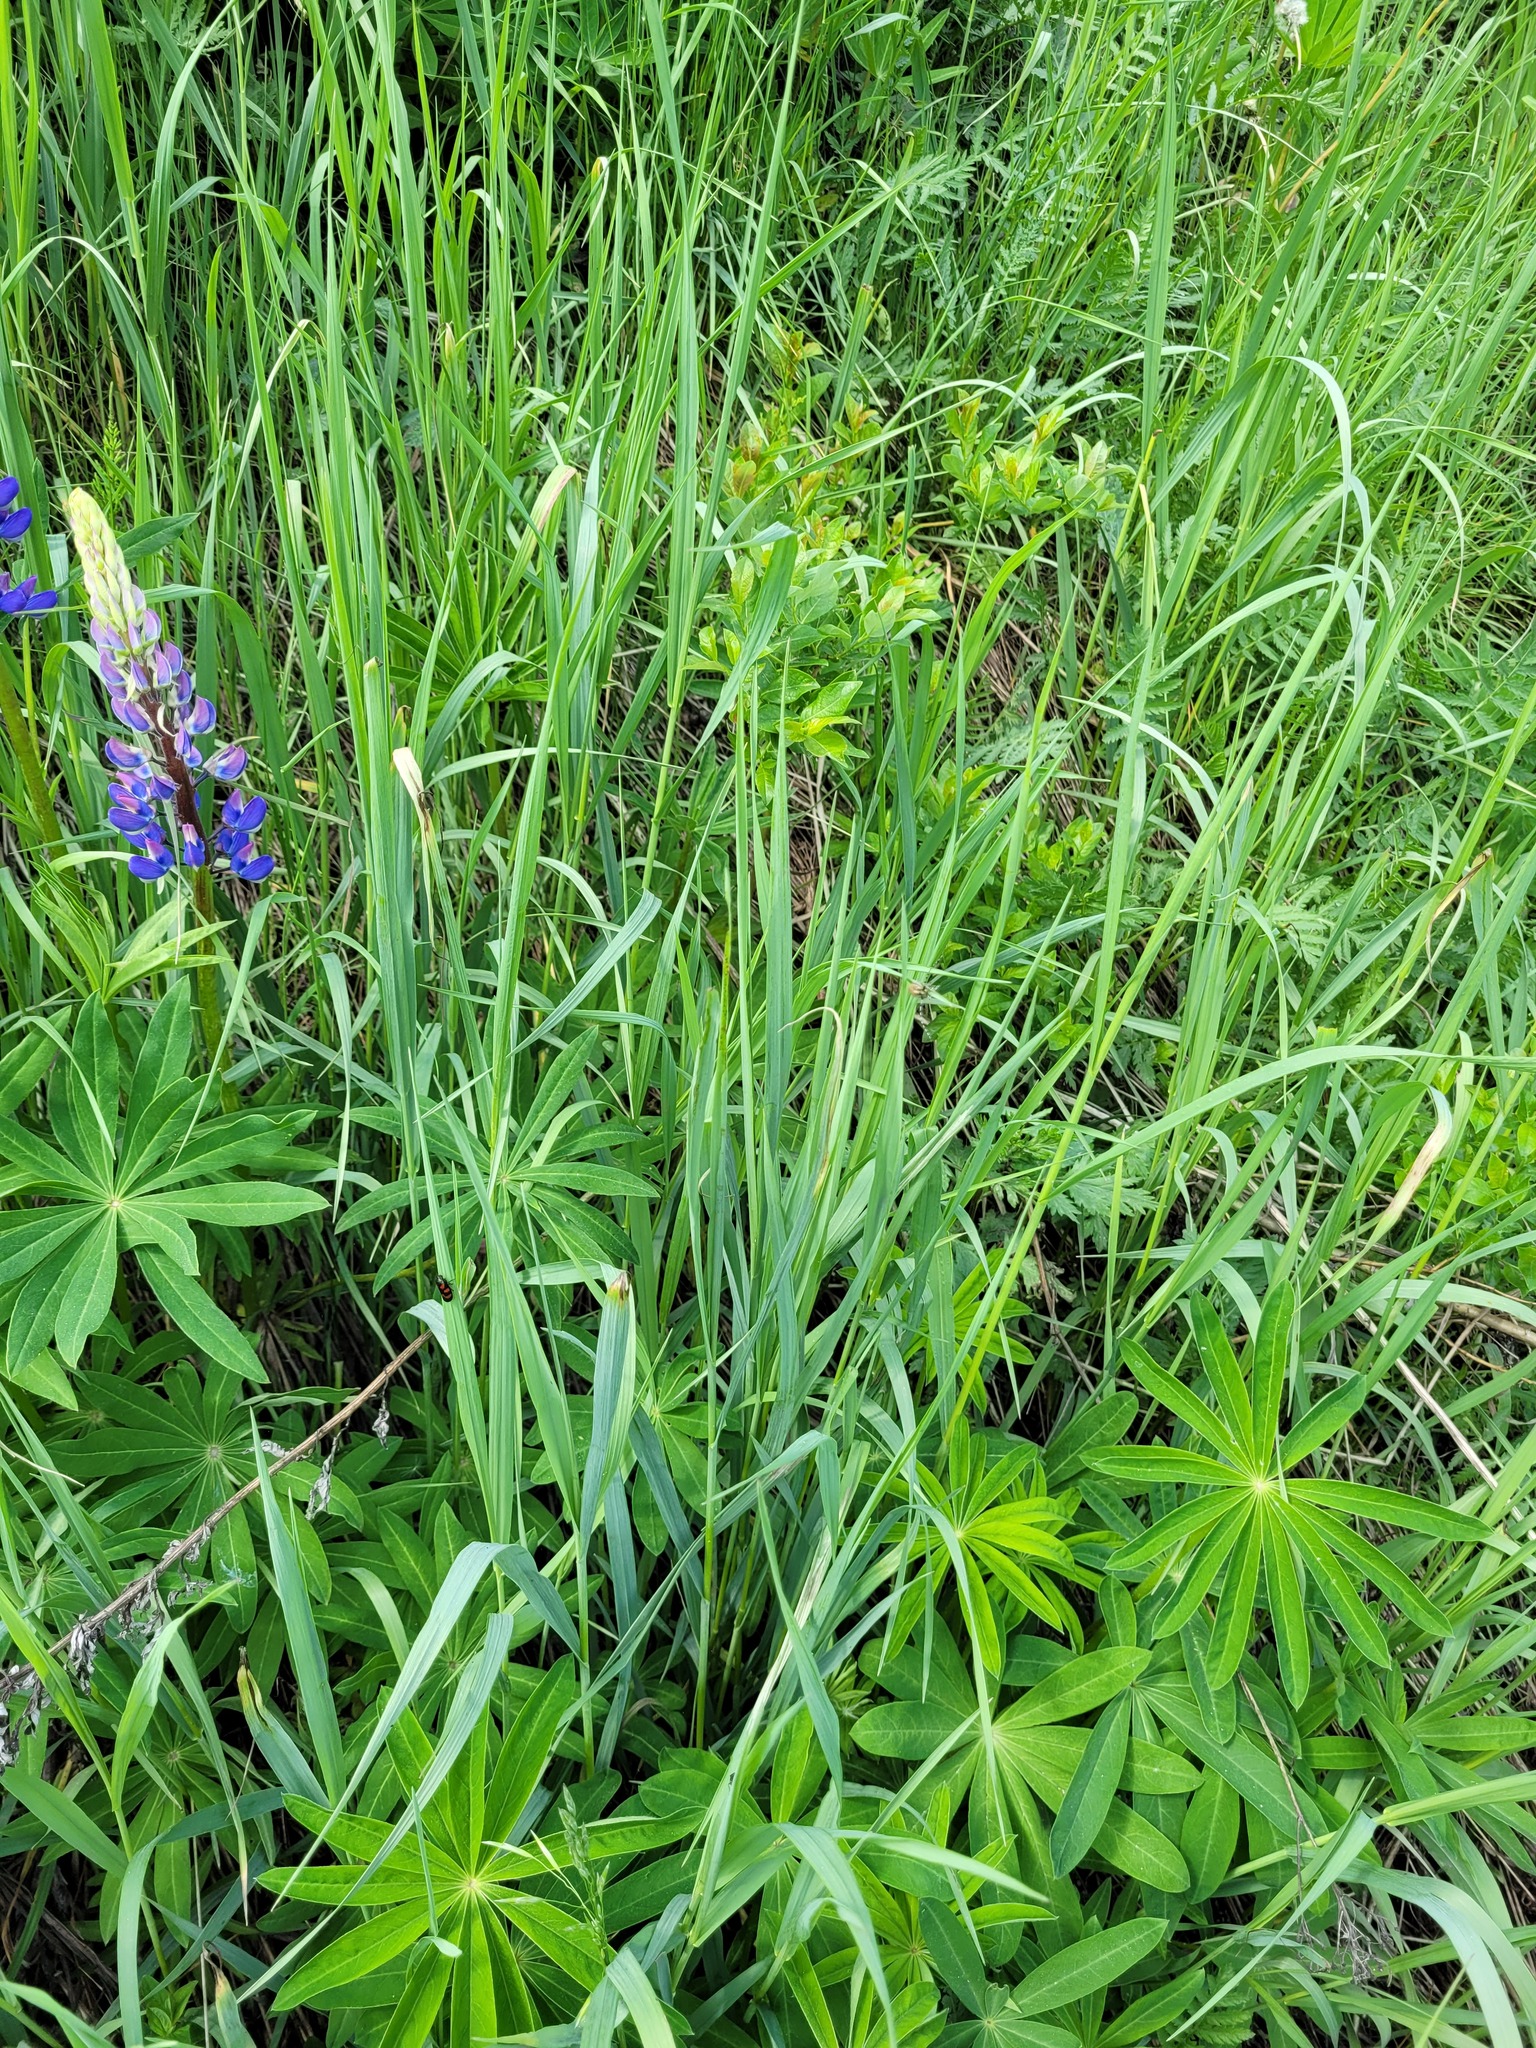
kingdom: Plantae
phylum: Tracheophyta
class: Liliopsida
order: Poales
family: Poaceae
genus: Bromus
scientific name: Bromus inermis
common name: Smooth brome
